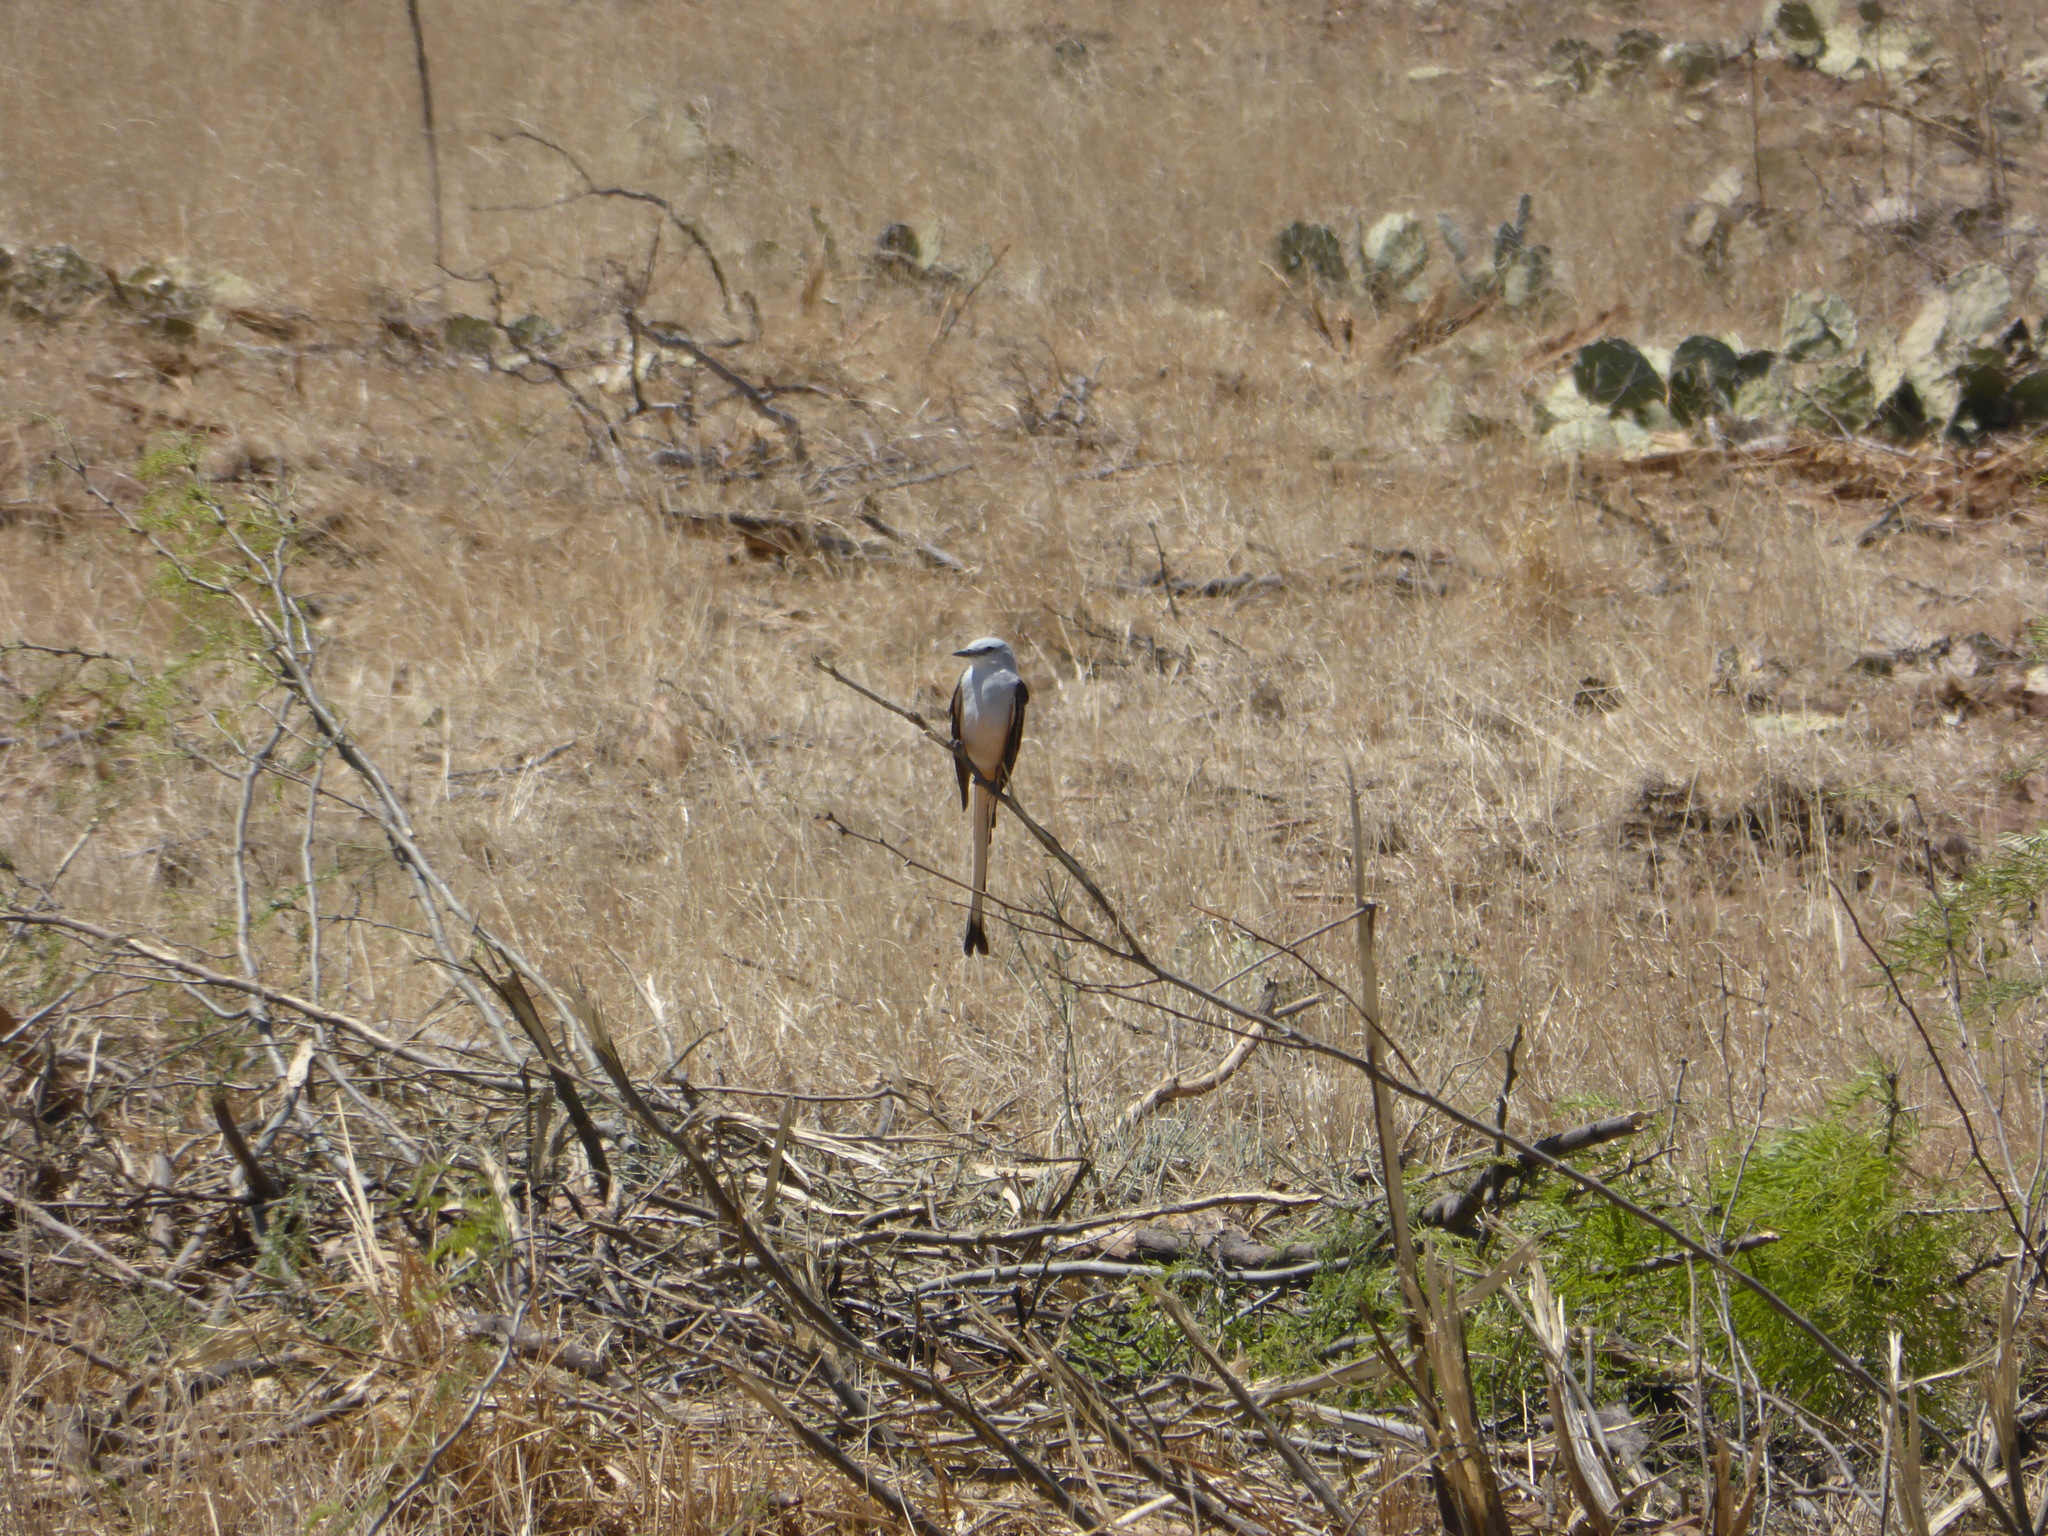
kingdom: Animalia
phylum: Chordata
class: Aves
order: Passeriformes
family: Tyrannidae
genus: Tyrannus
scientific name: Tyrannus forficatus
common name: Scissor-tailed flycatcher
